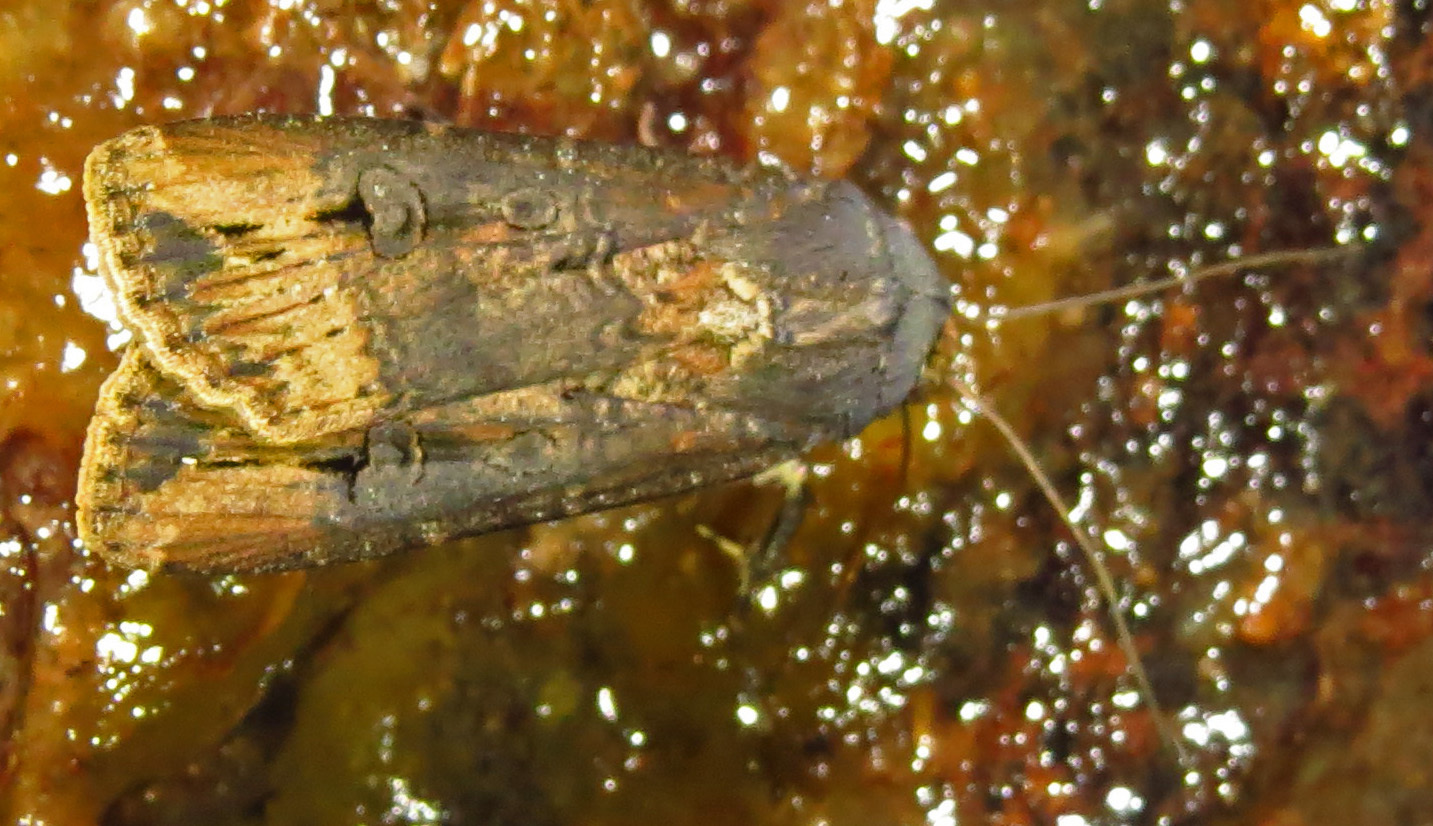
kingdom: Animalia
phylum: Arthropoda
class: Insecta
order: Lepidoptera
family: Noctuidae
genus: Agrotis
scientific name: Agrotis ipsilon
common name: Dark sword-grass
